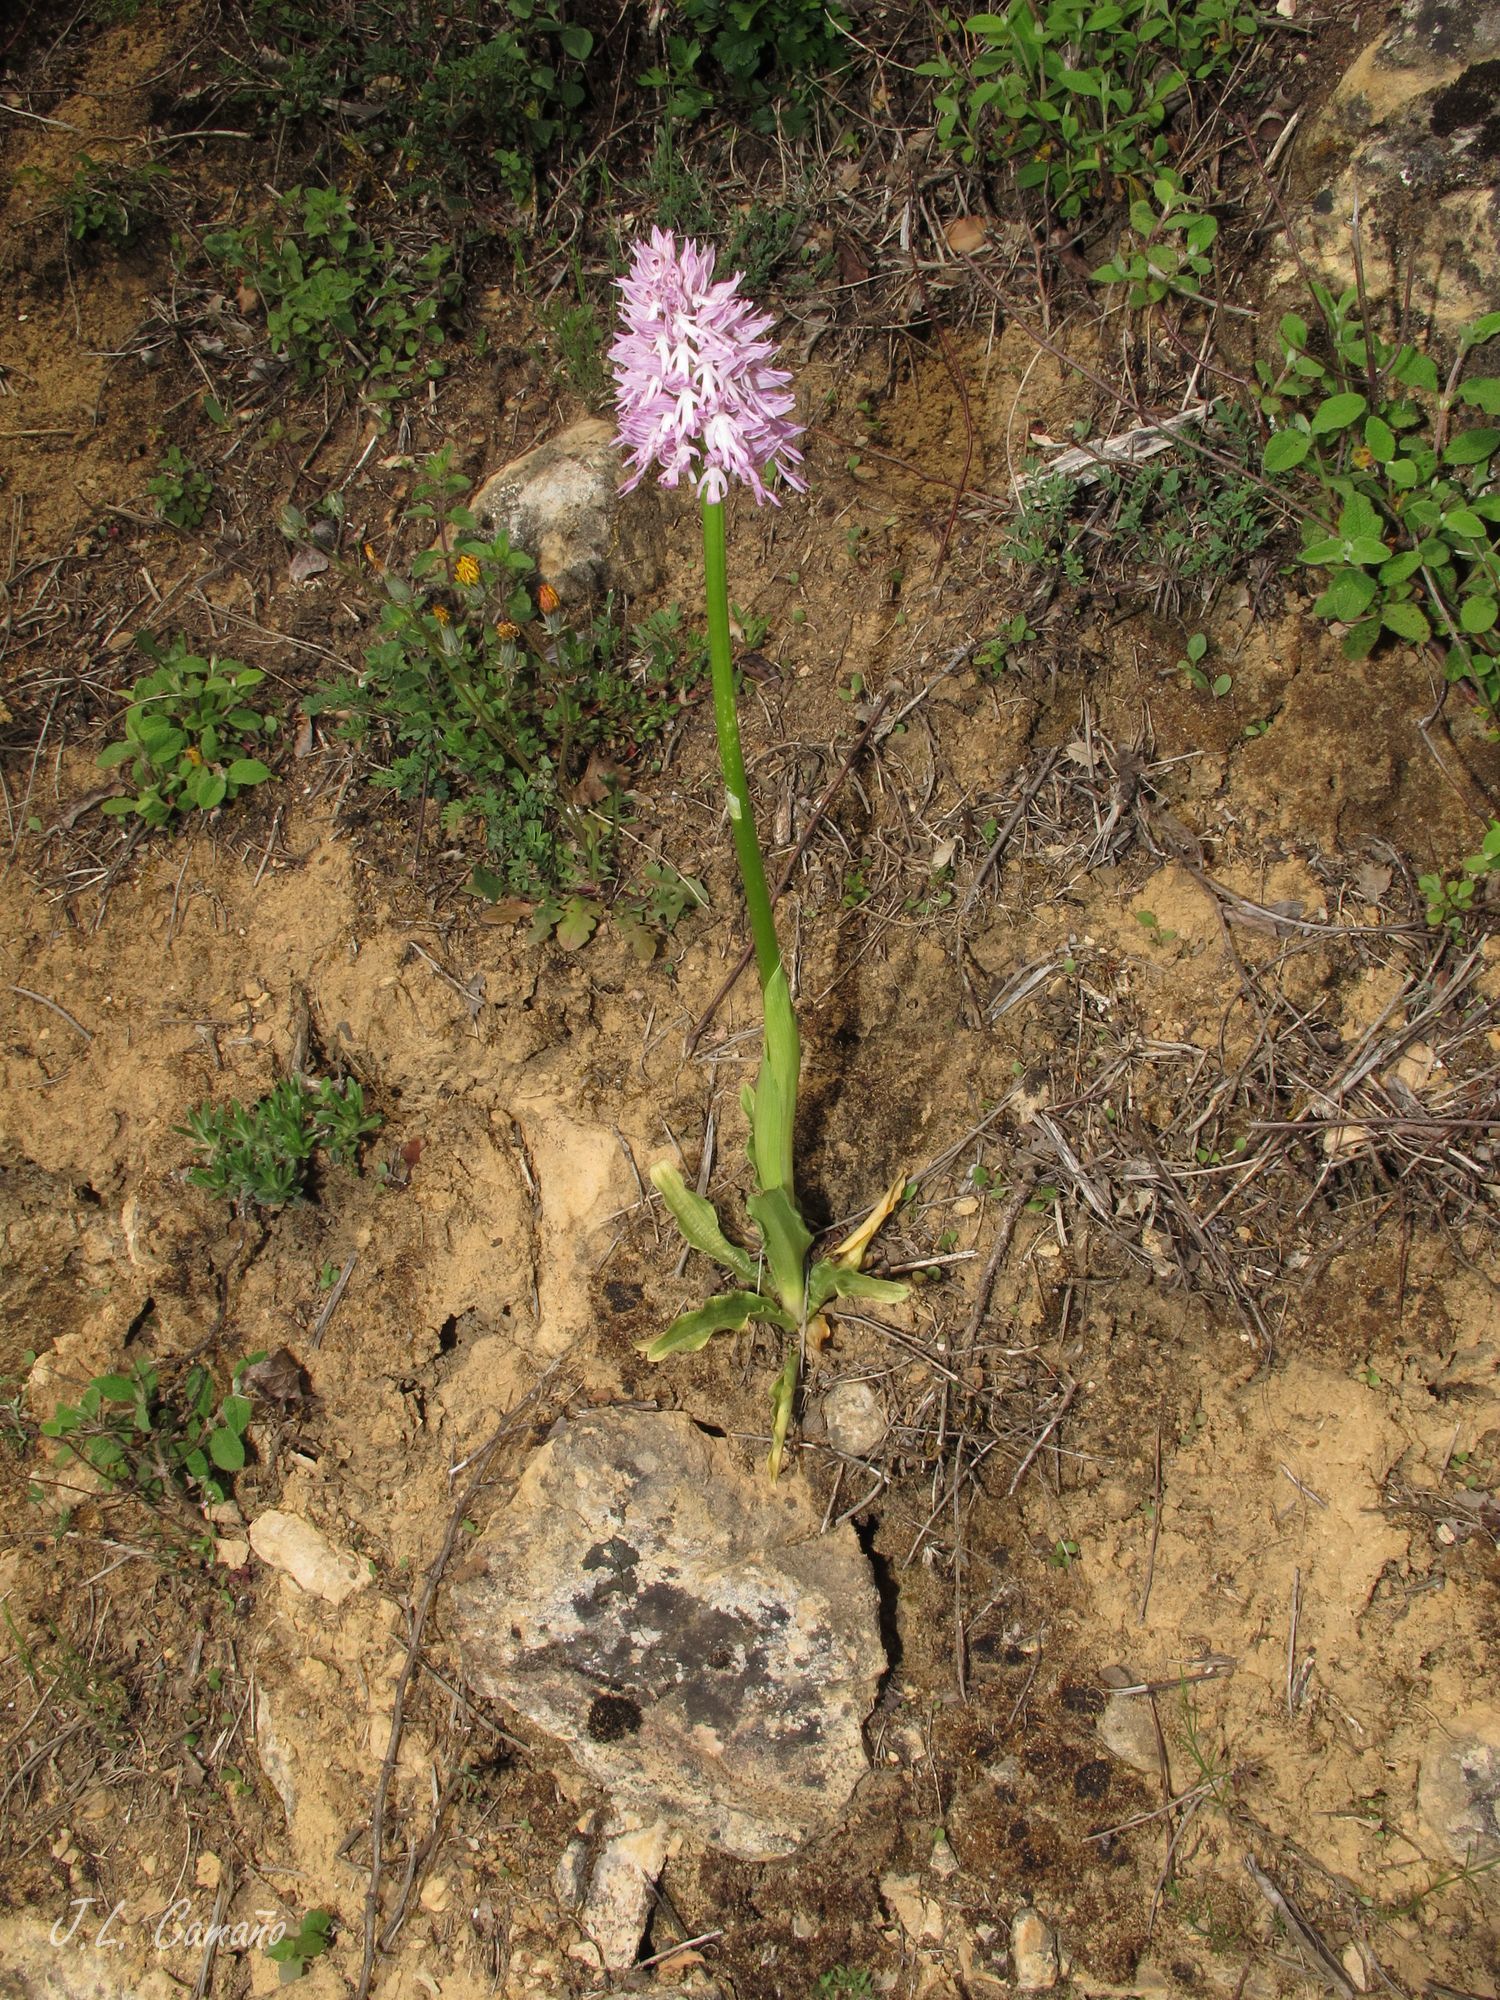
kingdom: Plantae
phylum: Tracheophyta
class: Liliopsida
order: Asparagales
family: Orchidaceae
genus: Orchis
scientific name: Orchis italica
